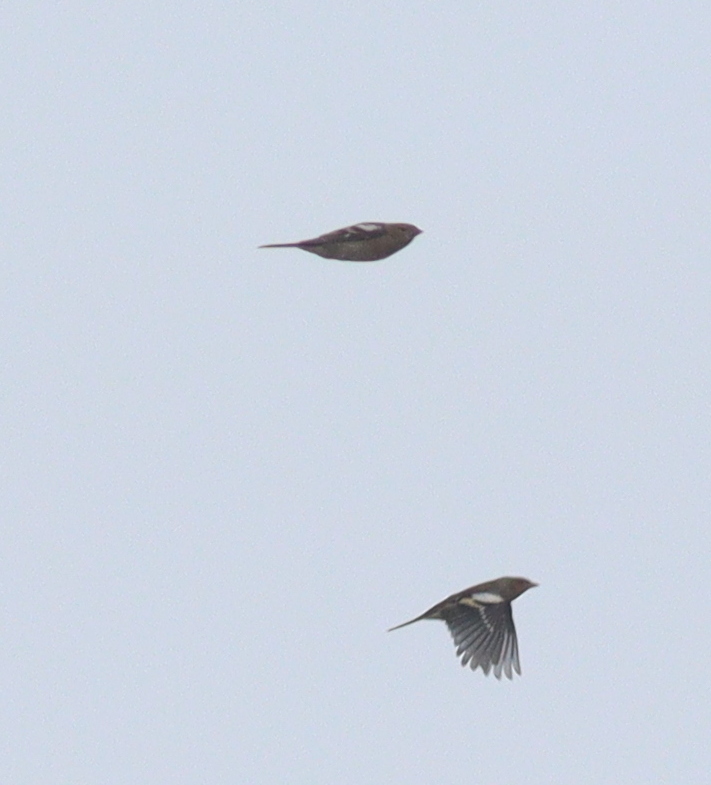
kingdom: Animalia
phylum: Chordata
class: Aves
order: Passeriformes
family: Fringillidae
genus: Fringilla
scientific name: Fringilla coelebs
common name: Common chaffinch
